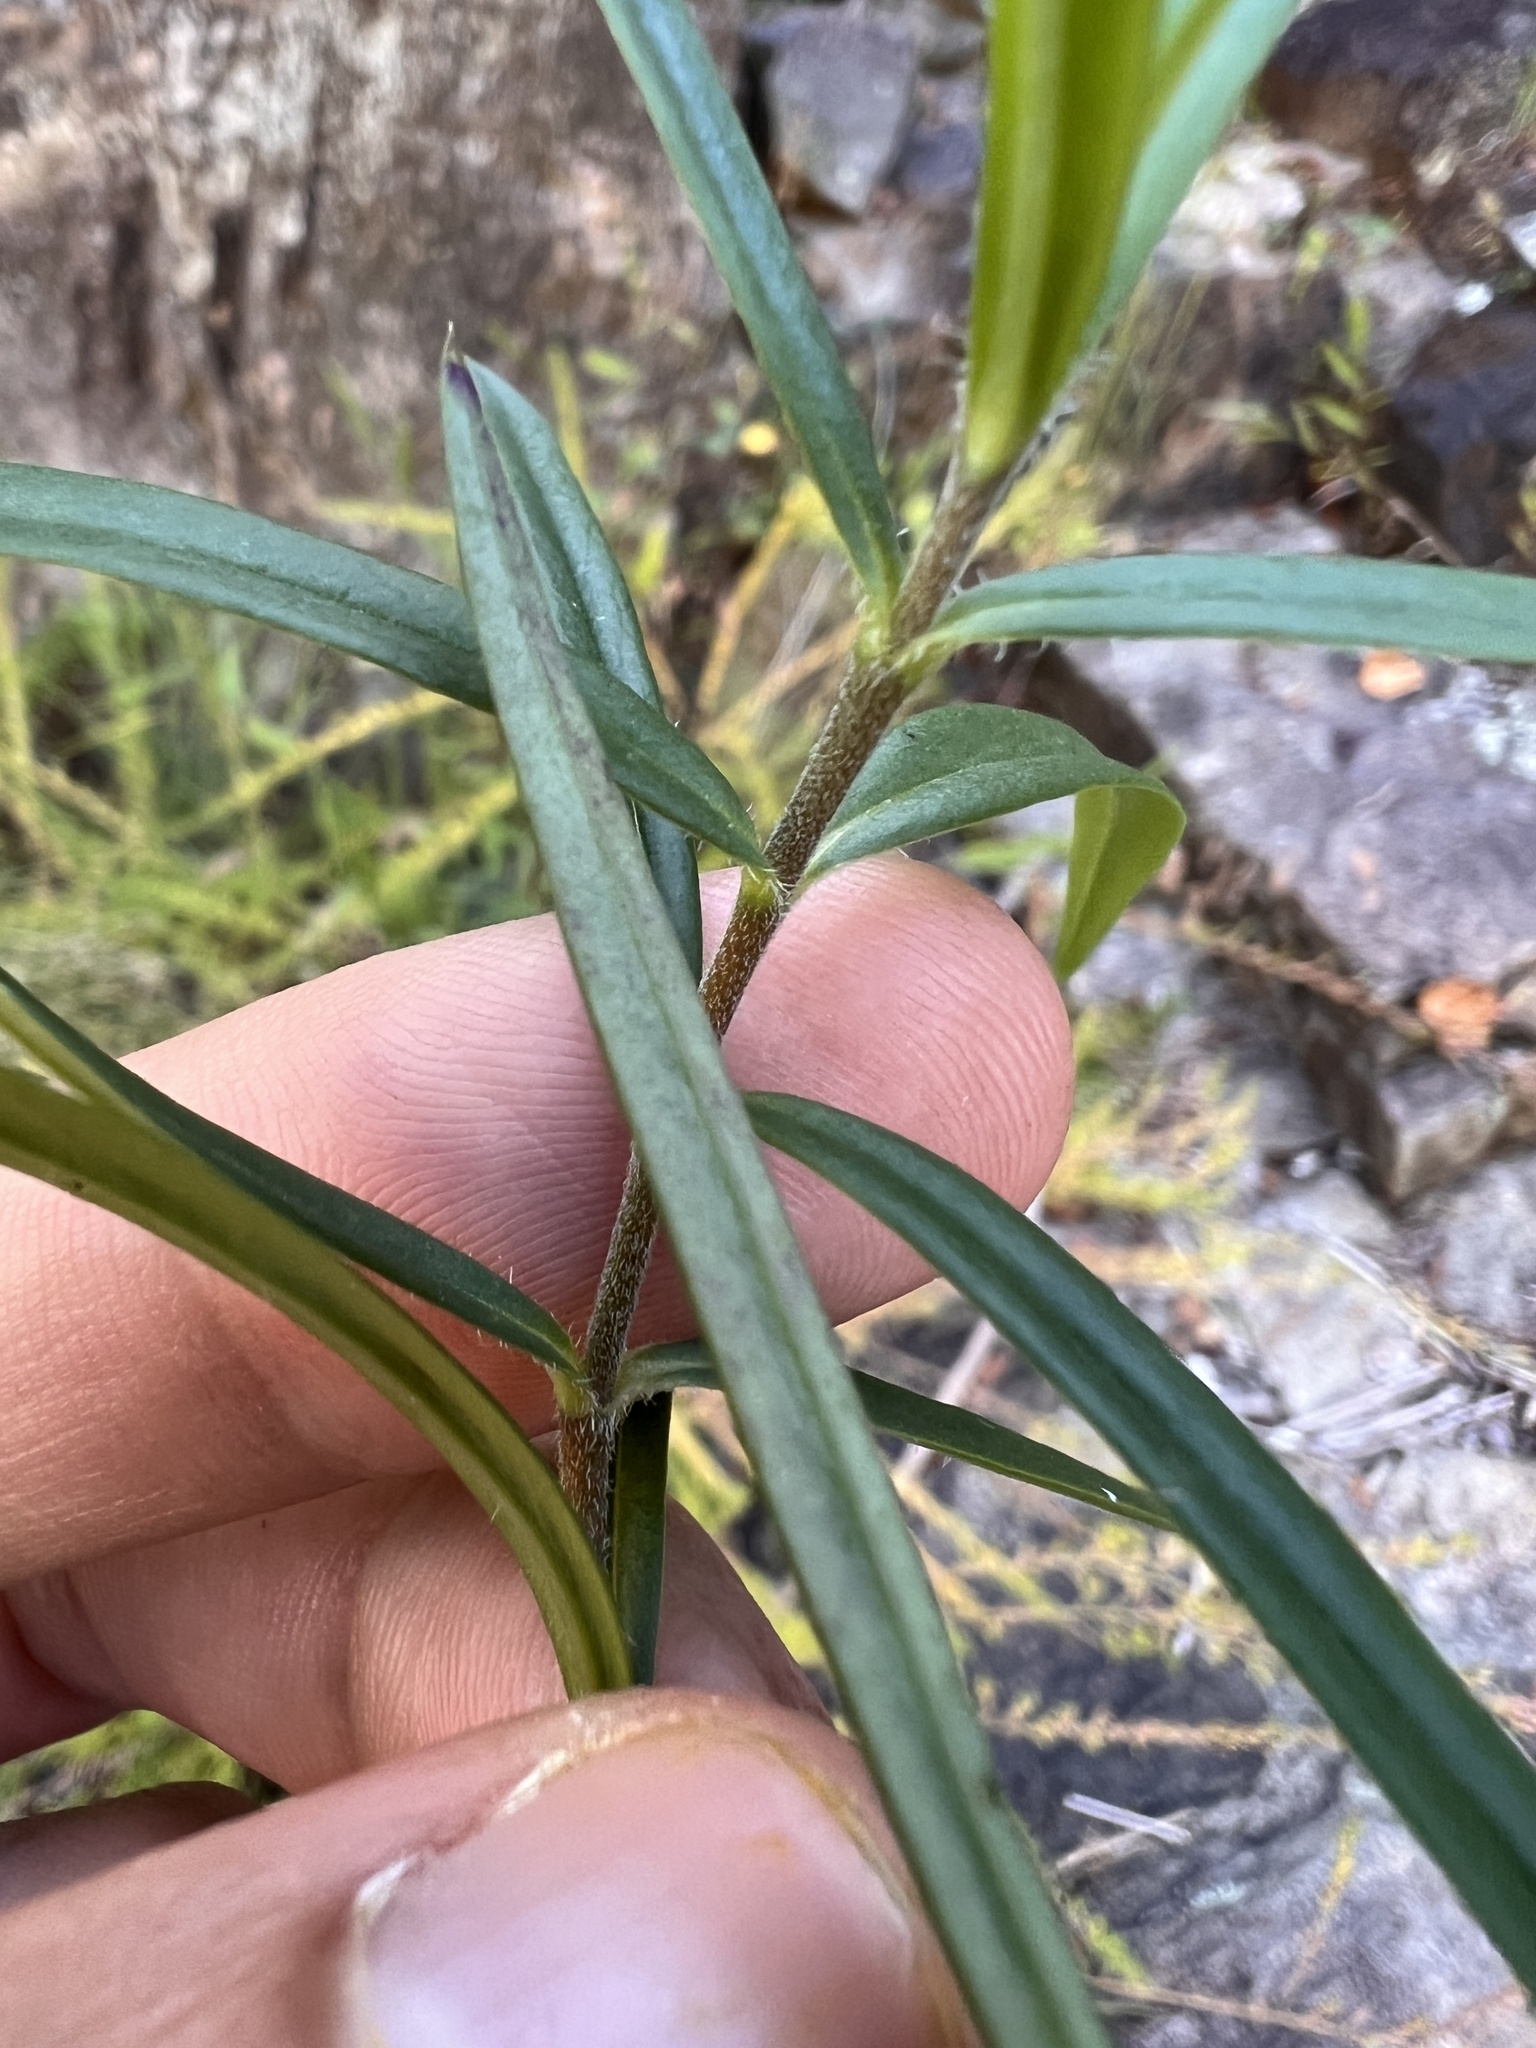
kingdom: Plantae
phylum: Tracheophyta
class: Magnoliopsida
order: Ericales
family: Polemoniaceae
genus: Phlox
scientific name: Phlox pilosa
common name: Prairie phlox
